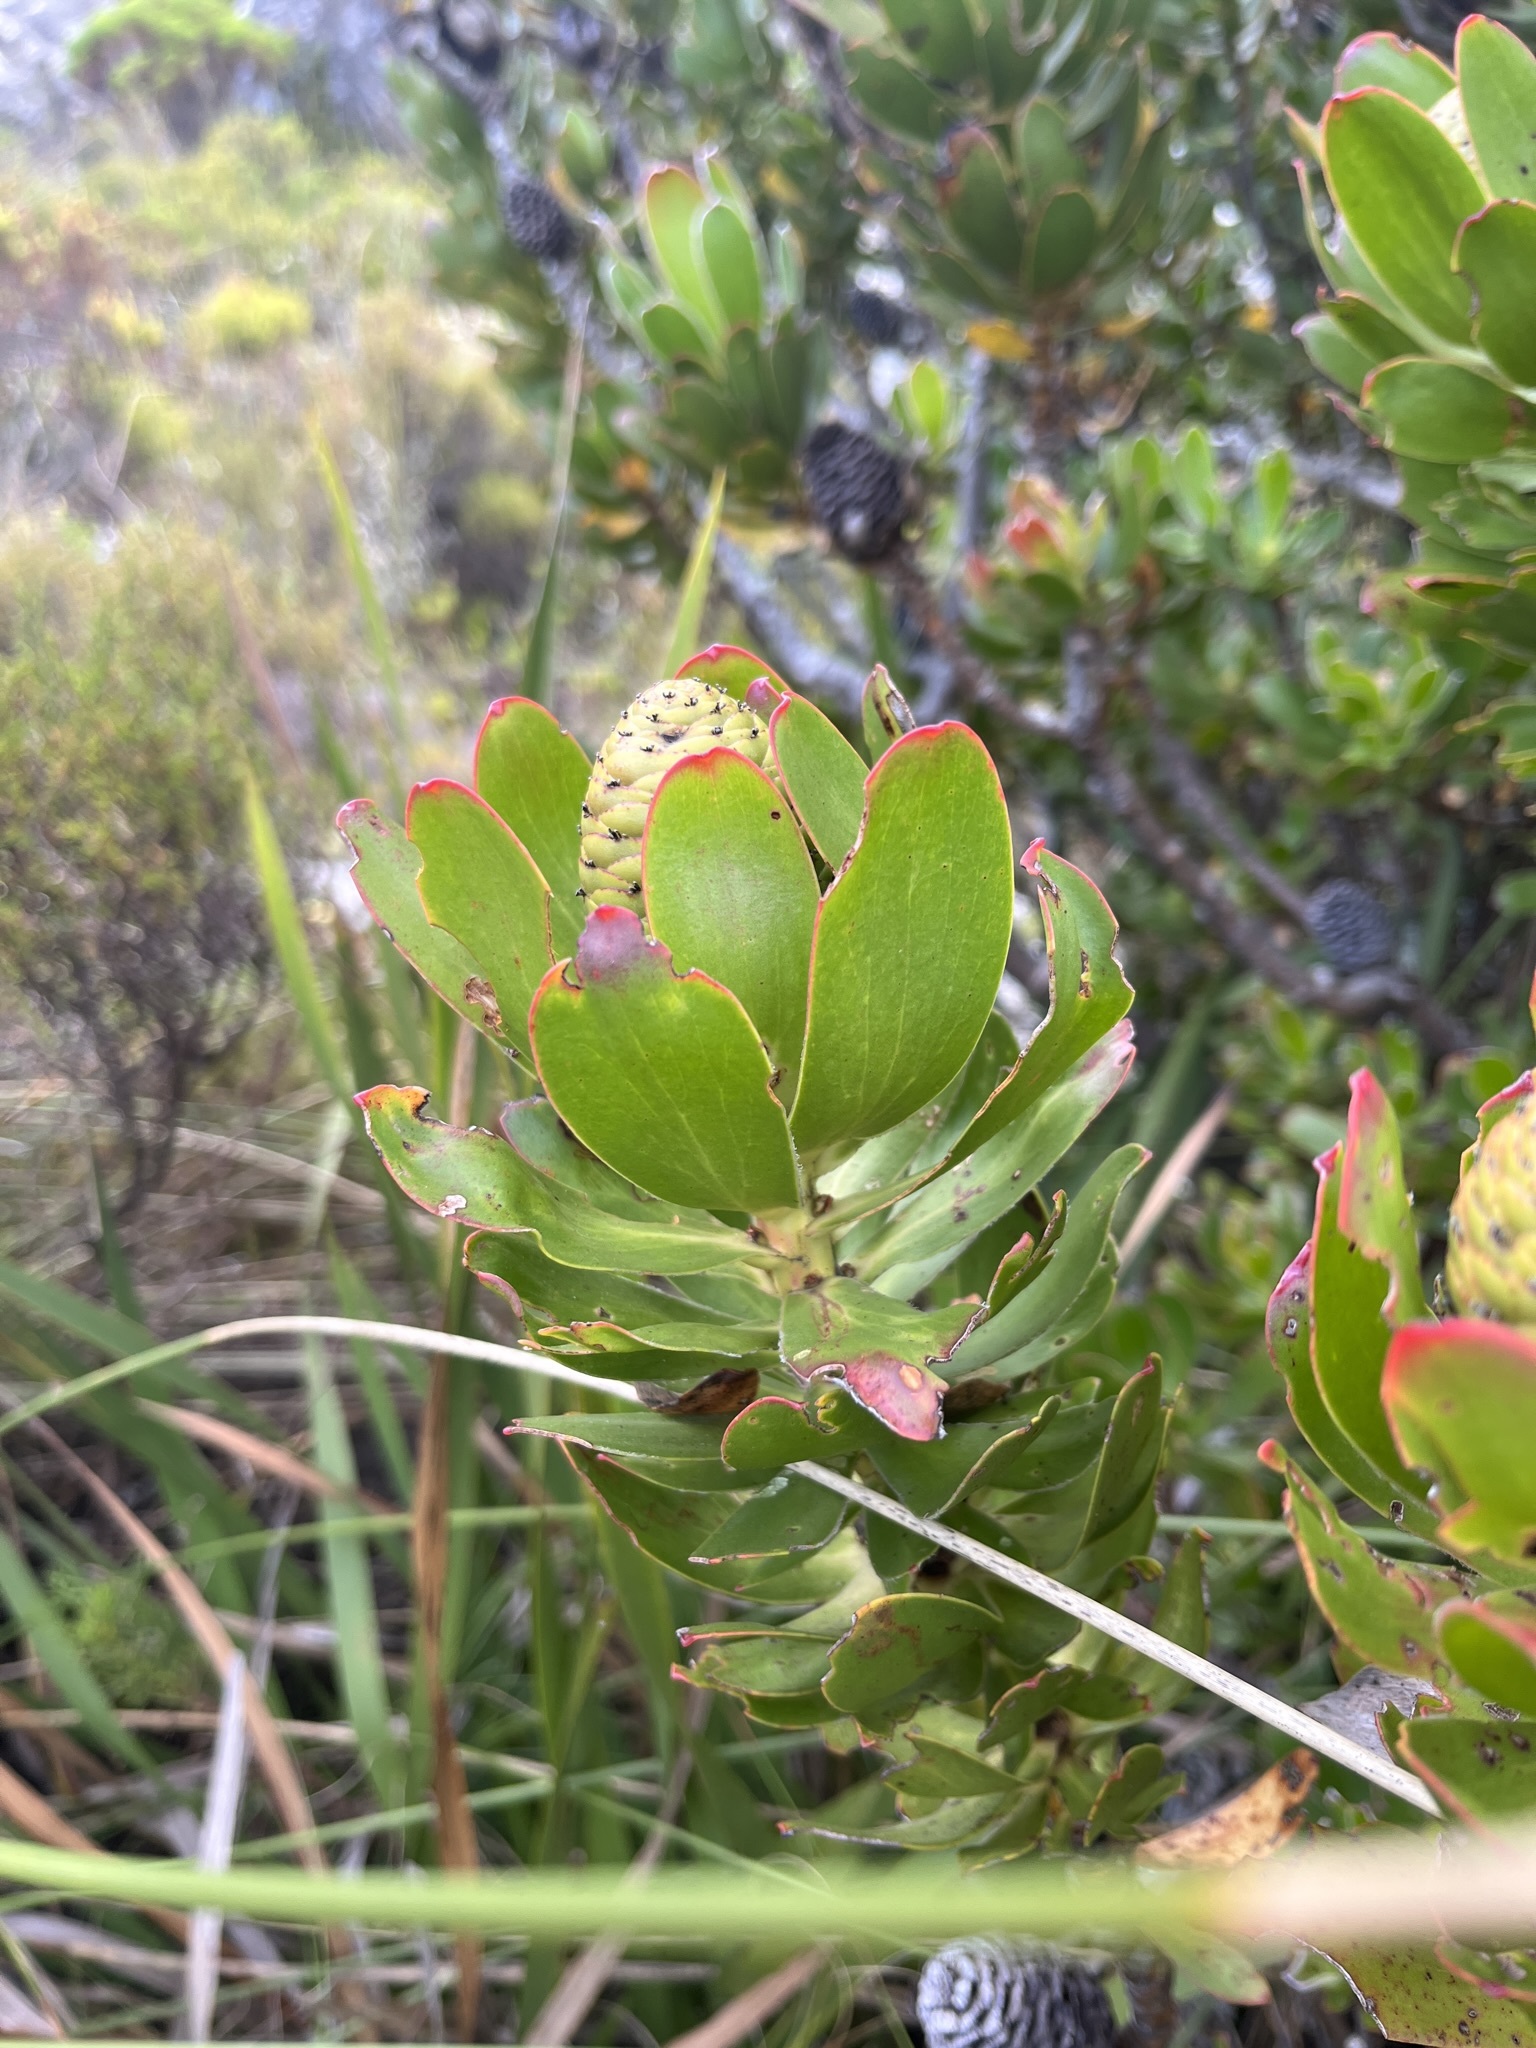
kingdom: Plantae
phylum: Tracheophyta
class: Magnoliopsida
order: Proteales
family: Proteaceae
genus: Leucadendron
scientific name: Leucadendron strobilinum
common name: Mountain rose
